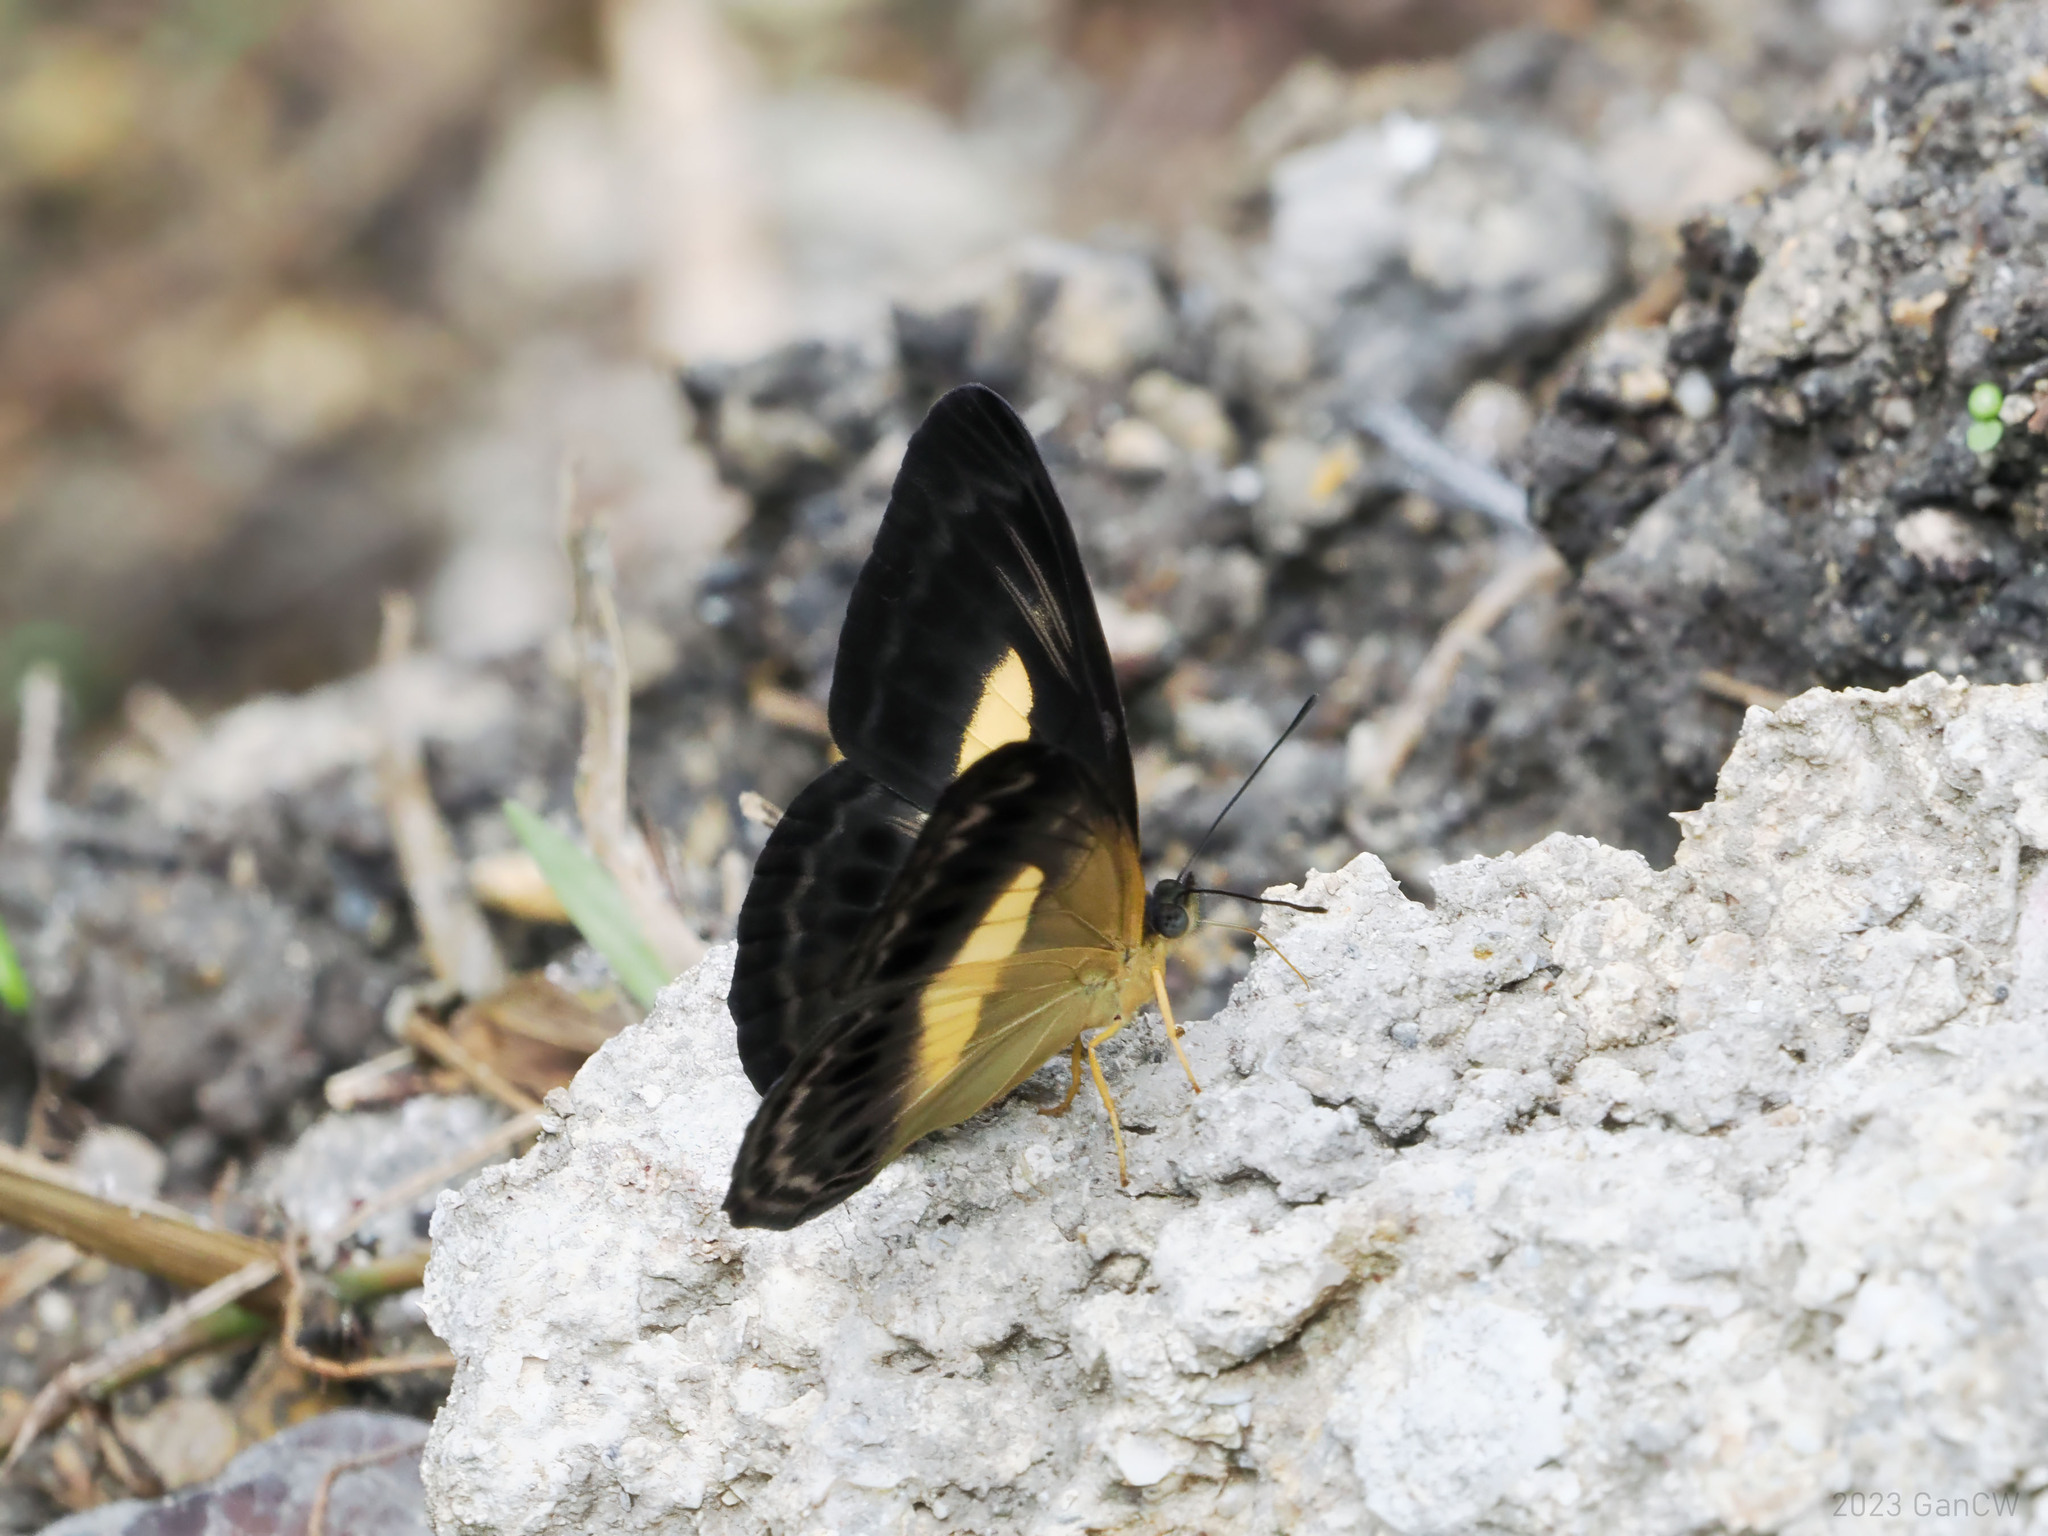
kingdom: Animalia
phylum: Arthropoda
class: Insecta
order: Lepidoptera
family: Nymphalidae
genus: Algia
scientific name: Algia
